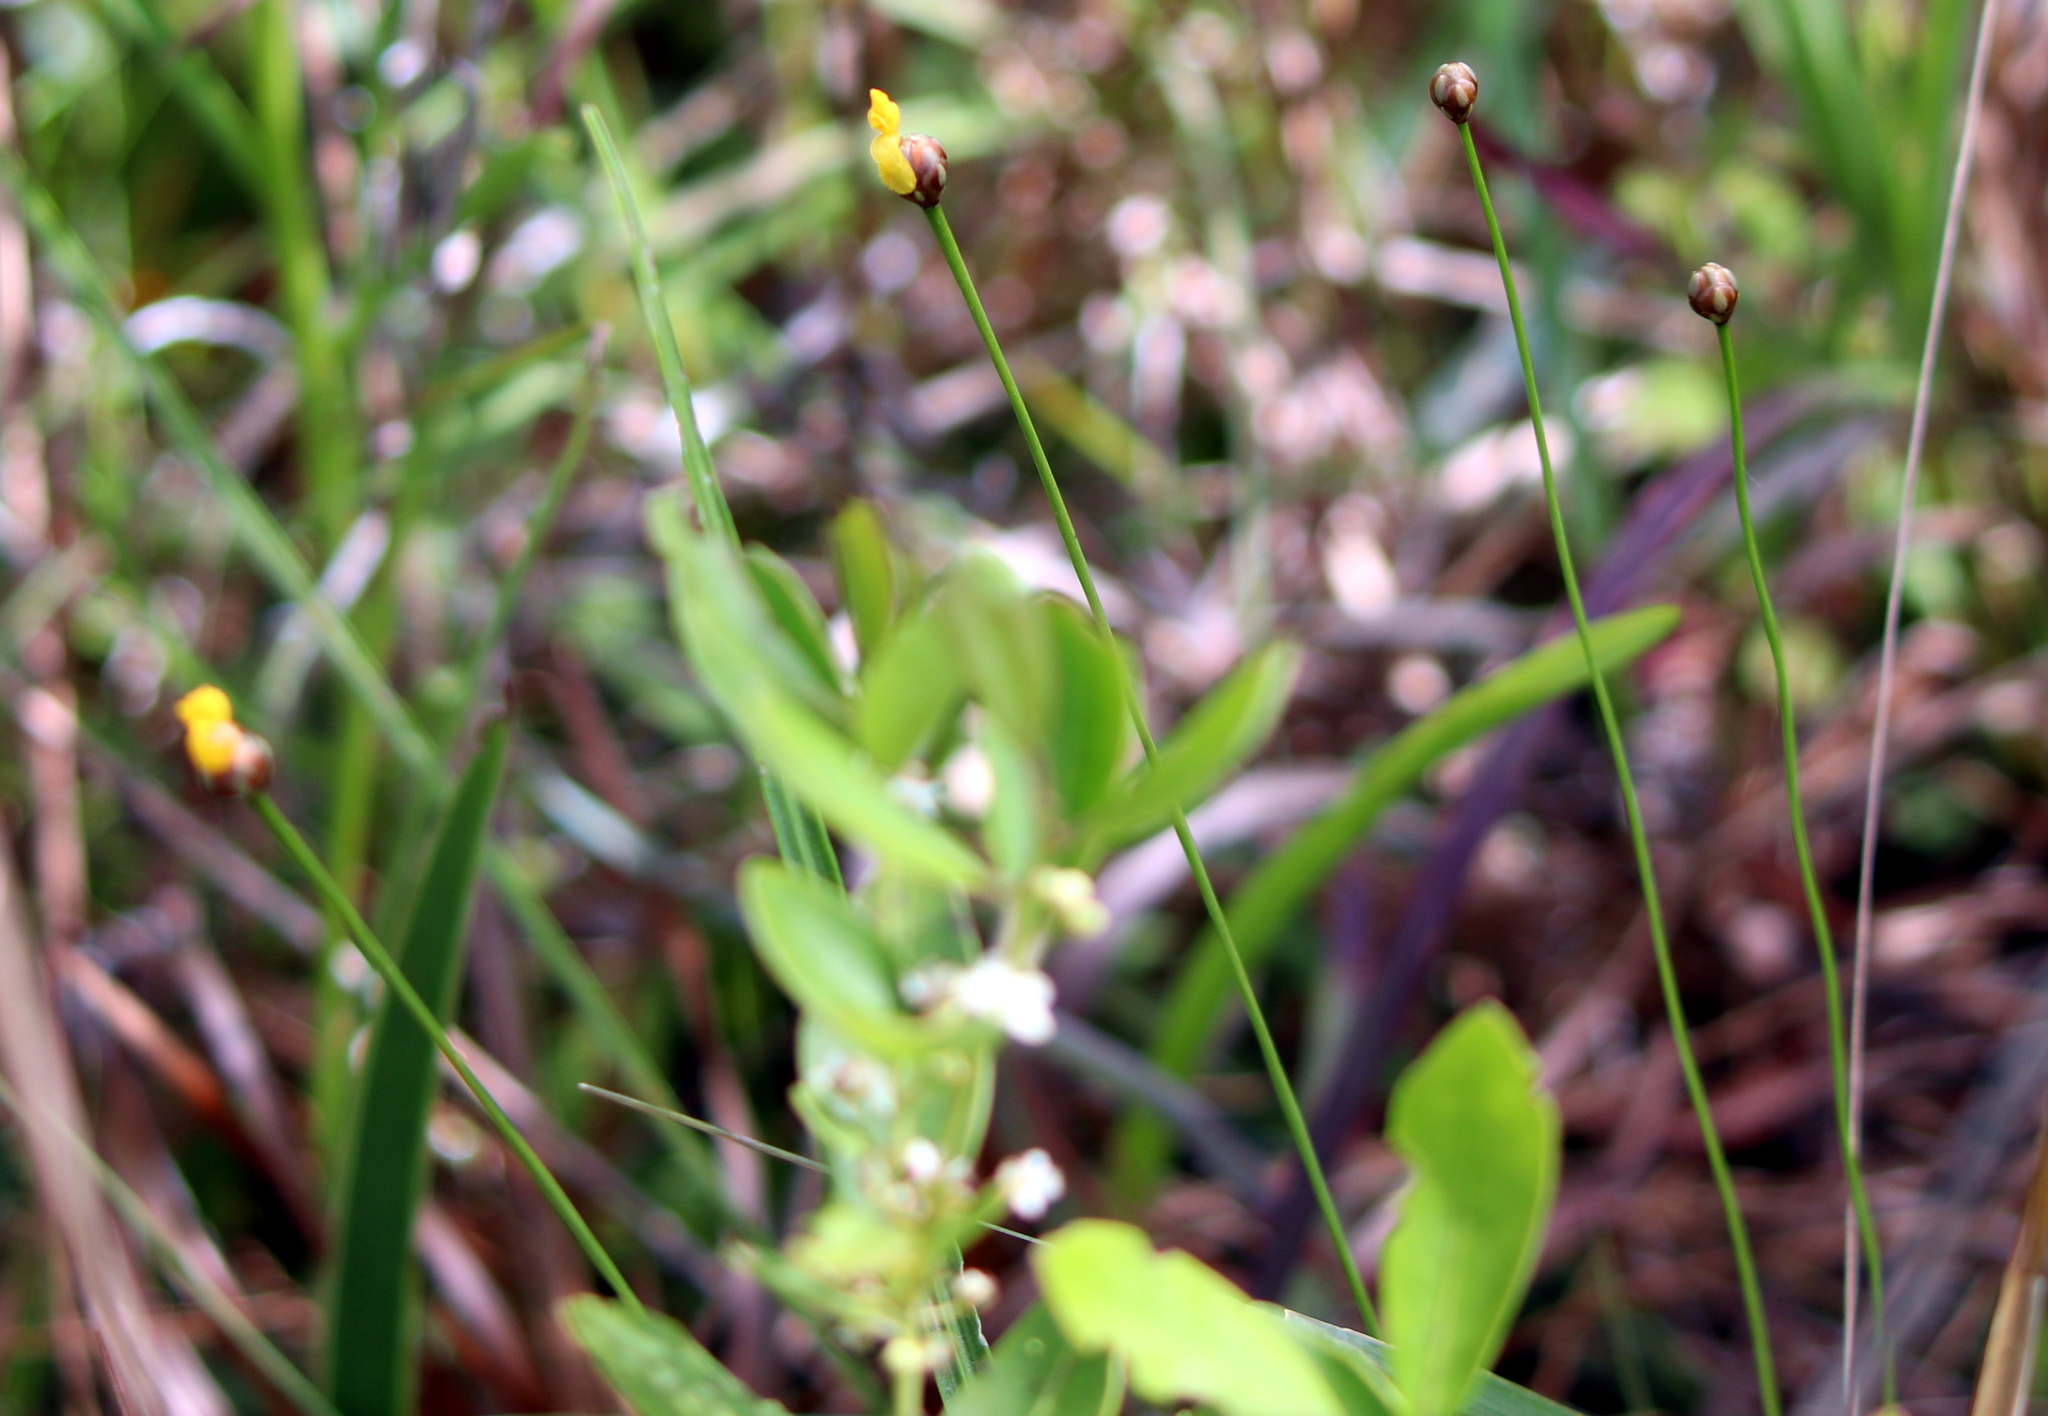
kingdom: Plantae
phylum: Tracheophyta
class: Liliopsida
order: Poales
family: Xyridaceae
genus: Xyris
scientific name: Xyris baldwiniana
